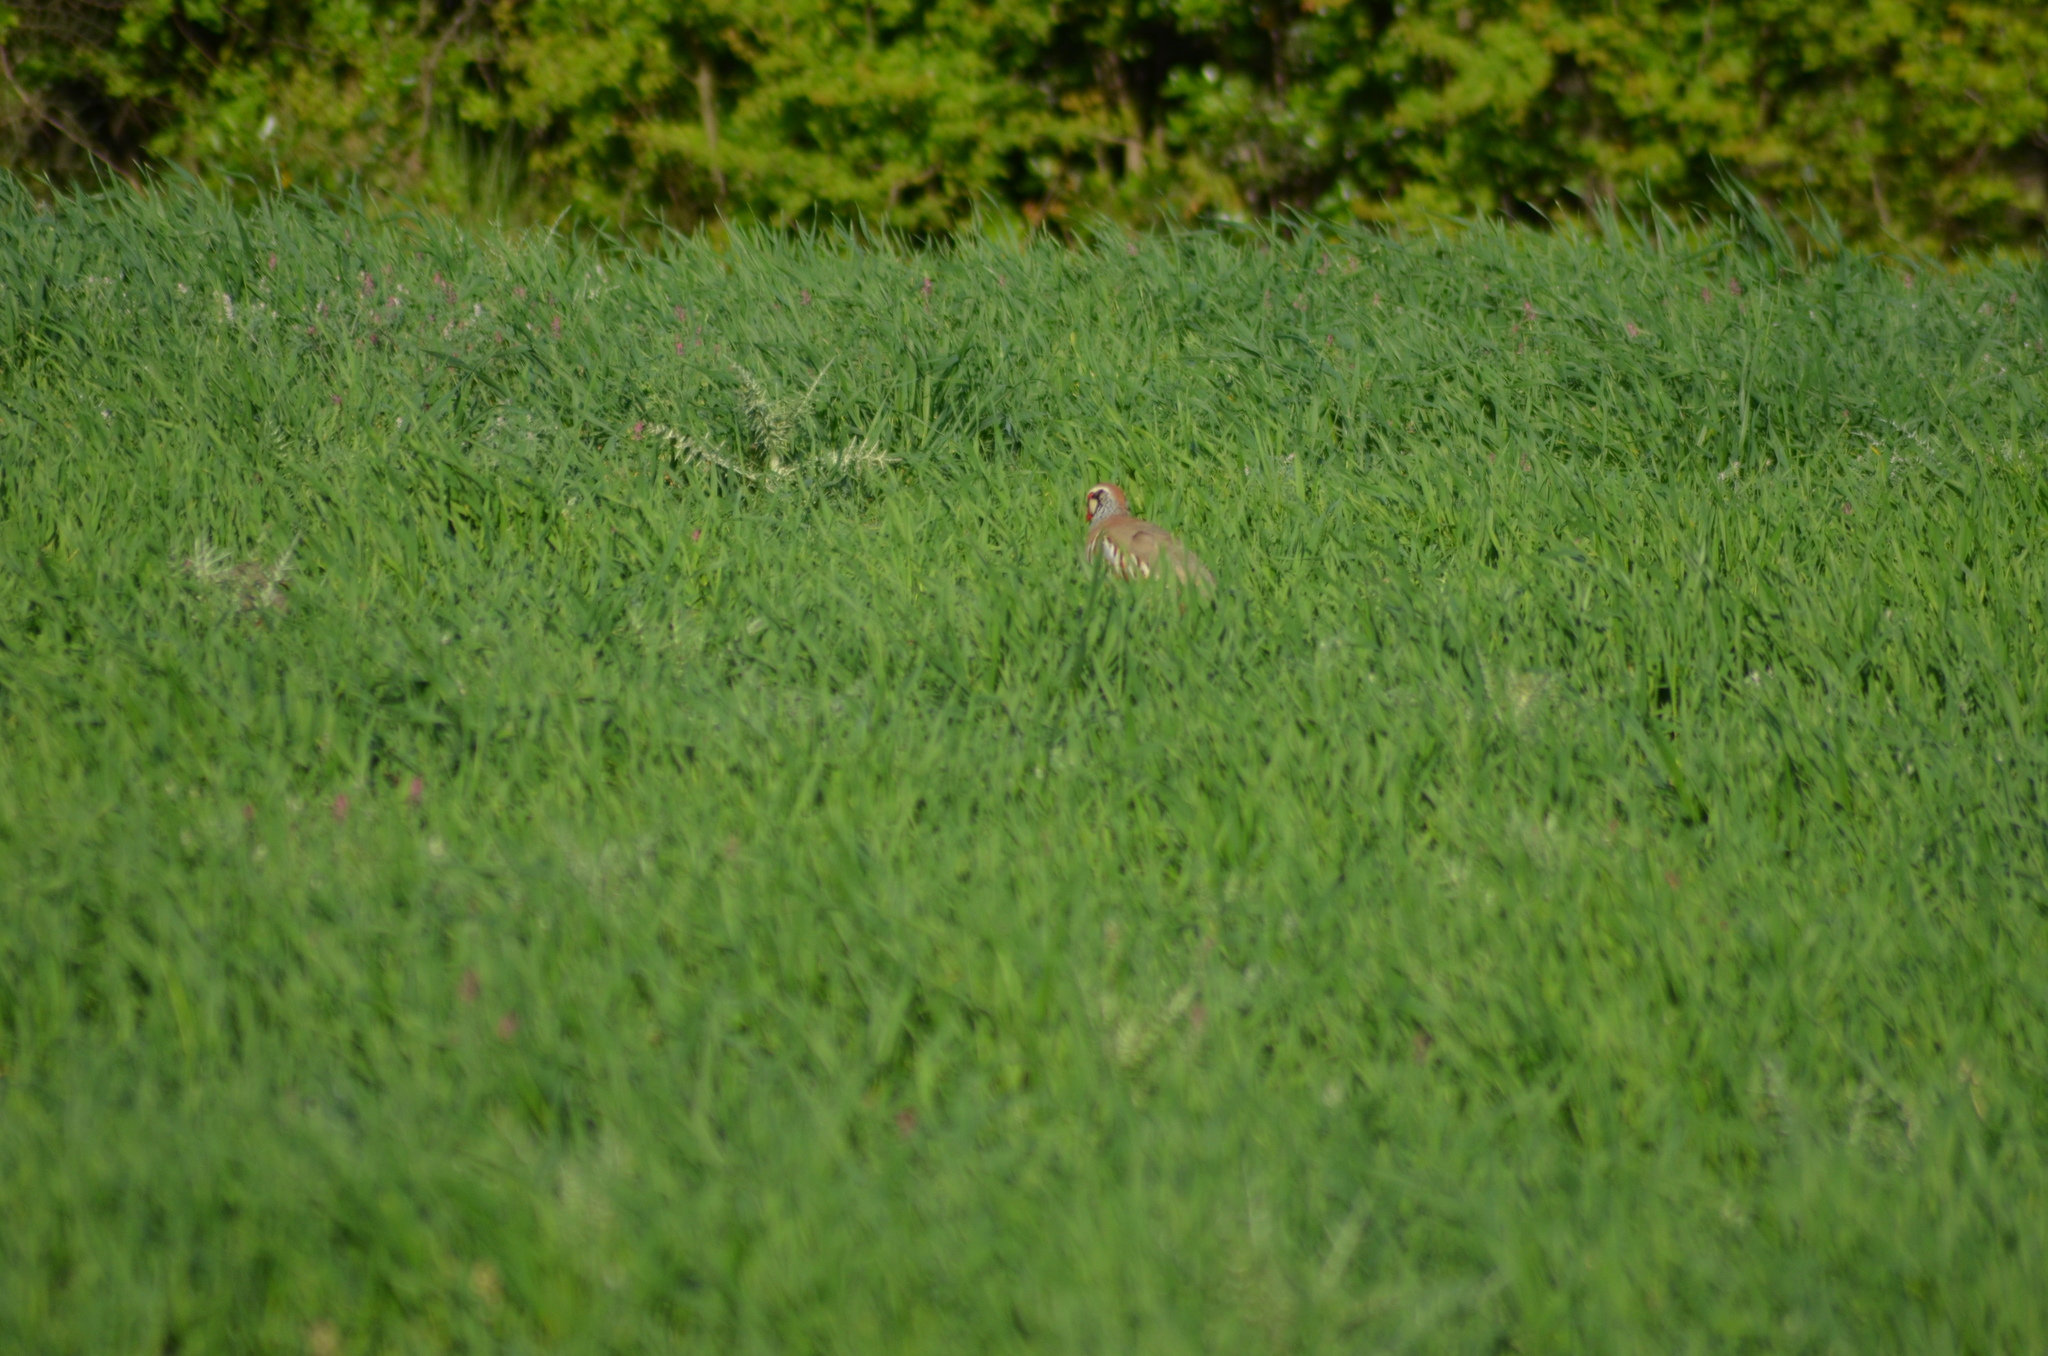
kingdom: Animalia
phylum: Chordata
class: Aves
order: Galliformes
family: Phasianidae
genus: Alectoris
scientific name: Alectoris rufa
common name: Red-legged partridge
